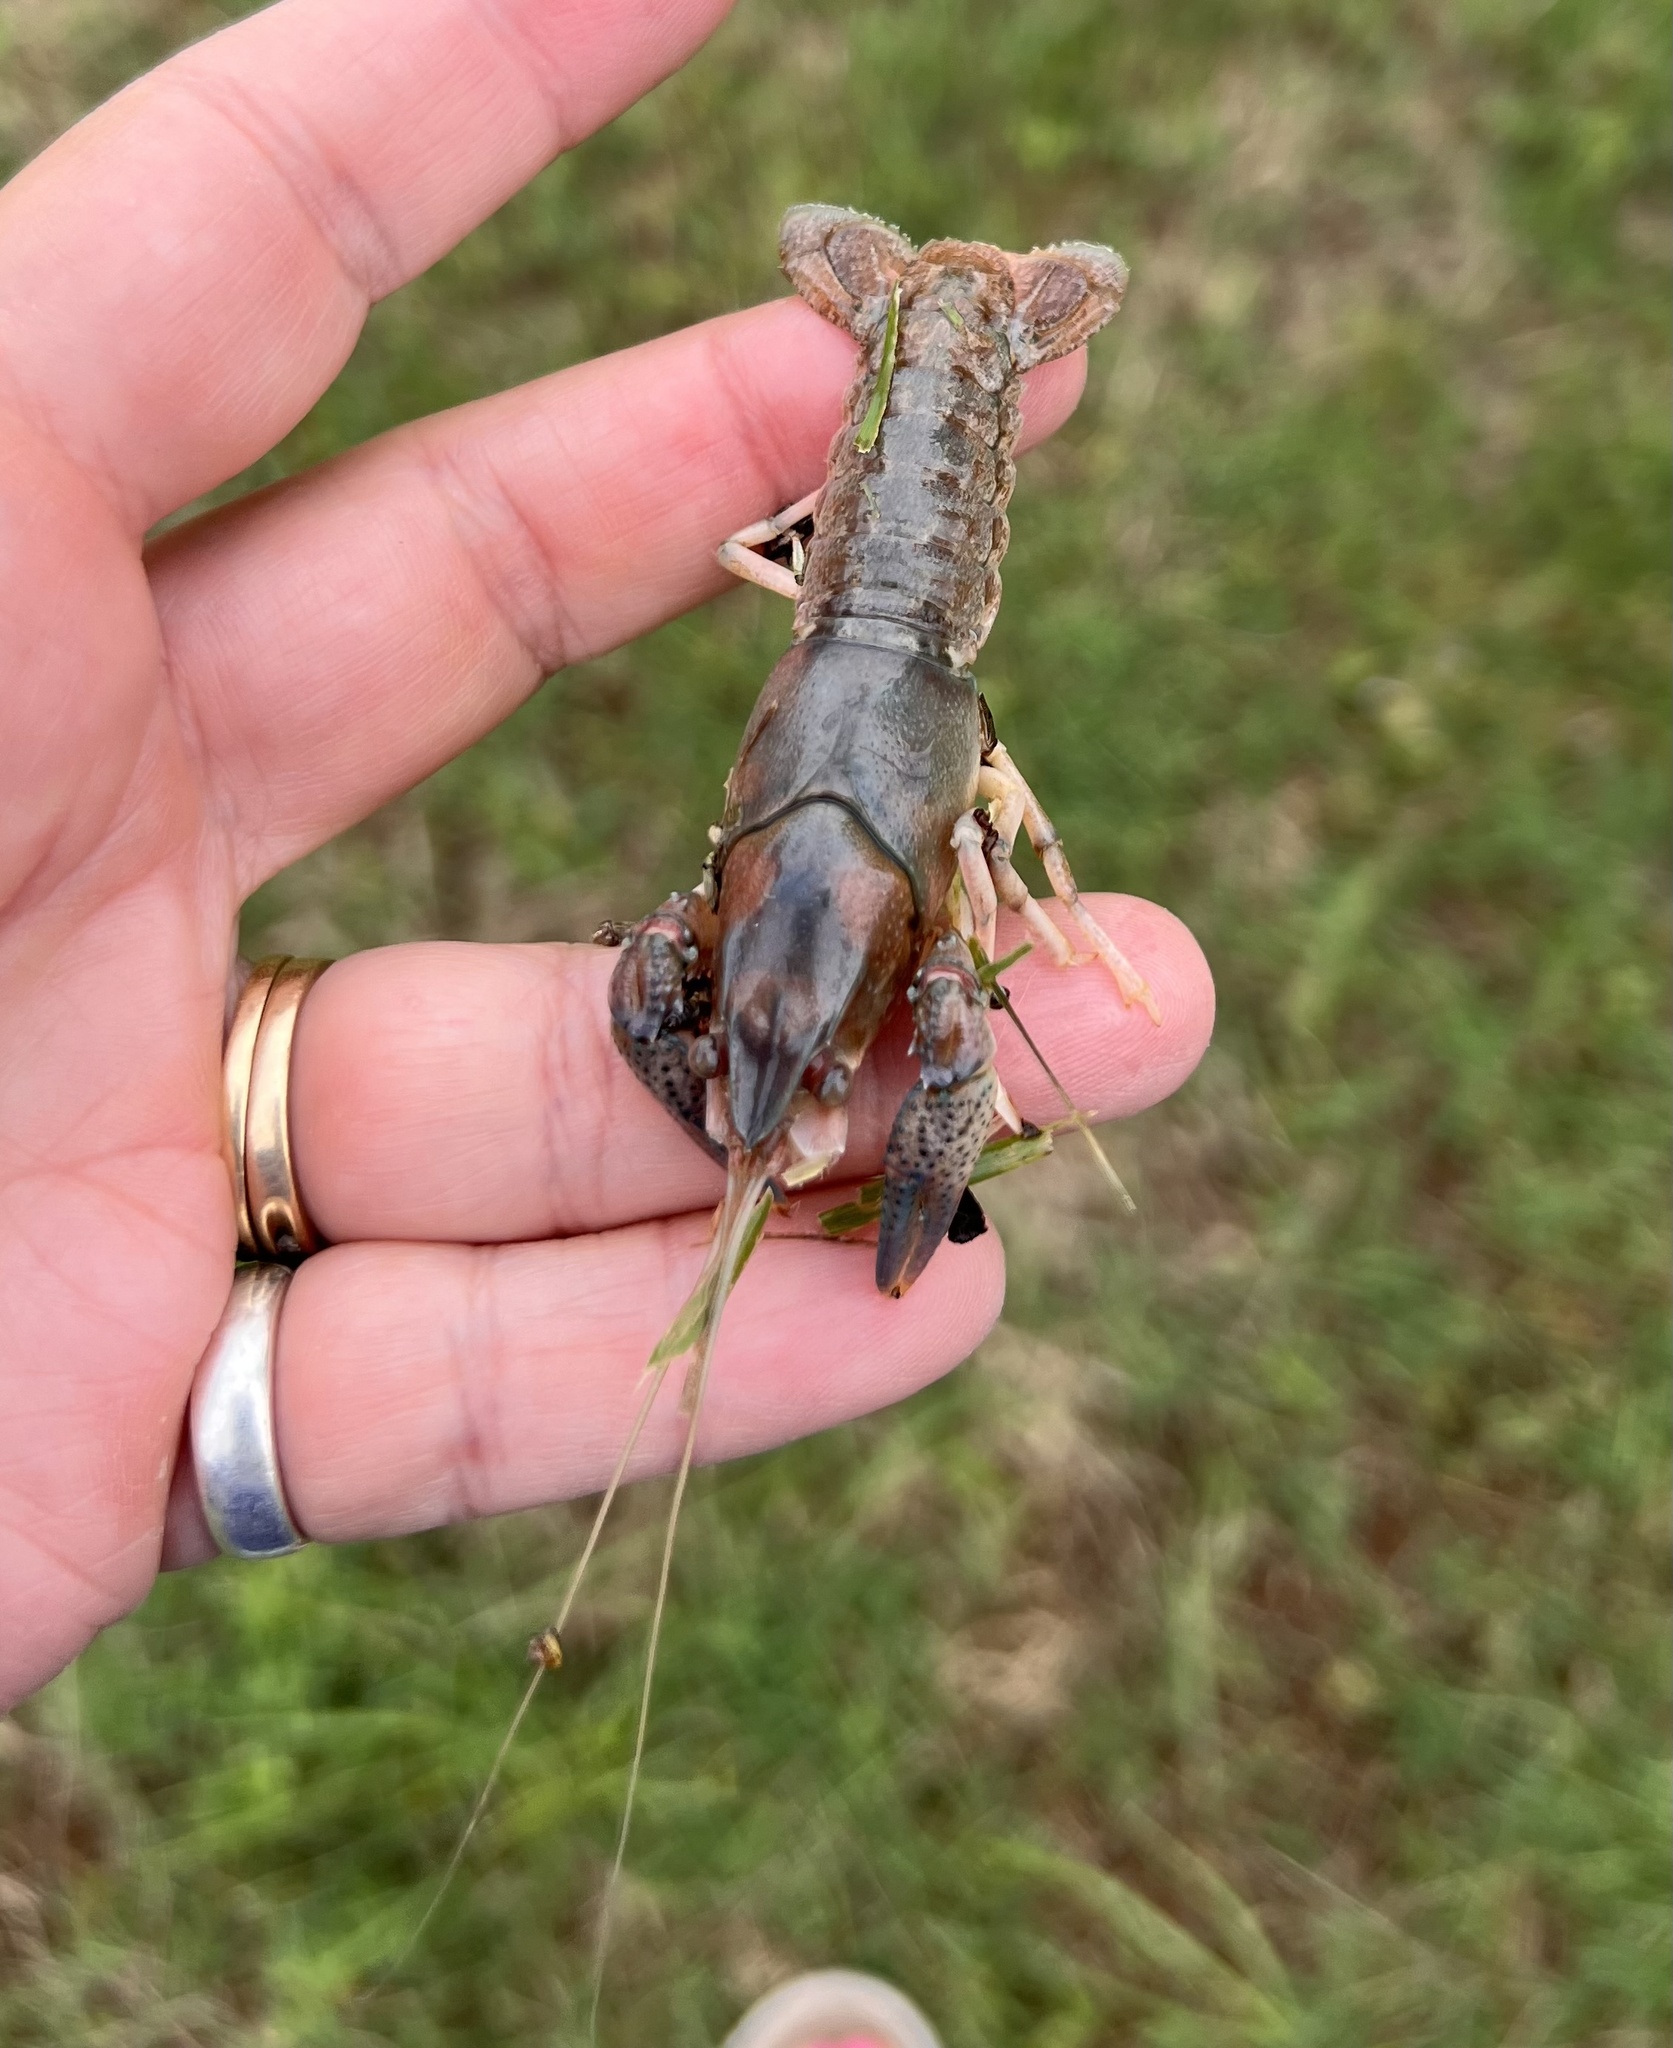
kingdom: Animalia
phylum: Arthropoda
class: Malacostraca
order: Decapoda
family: Cambaridae
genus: Procambarus
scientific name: Procambarus simulans
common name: Southern plains crayfish
